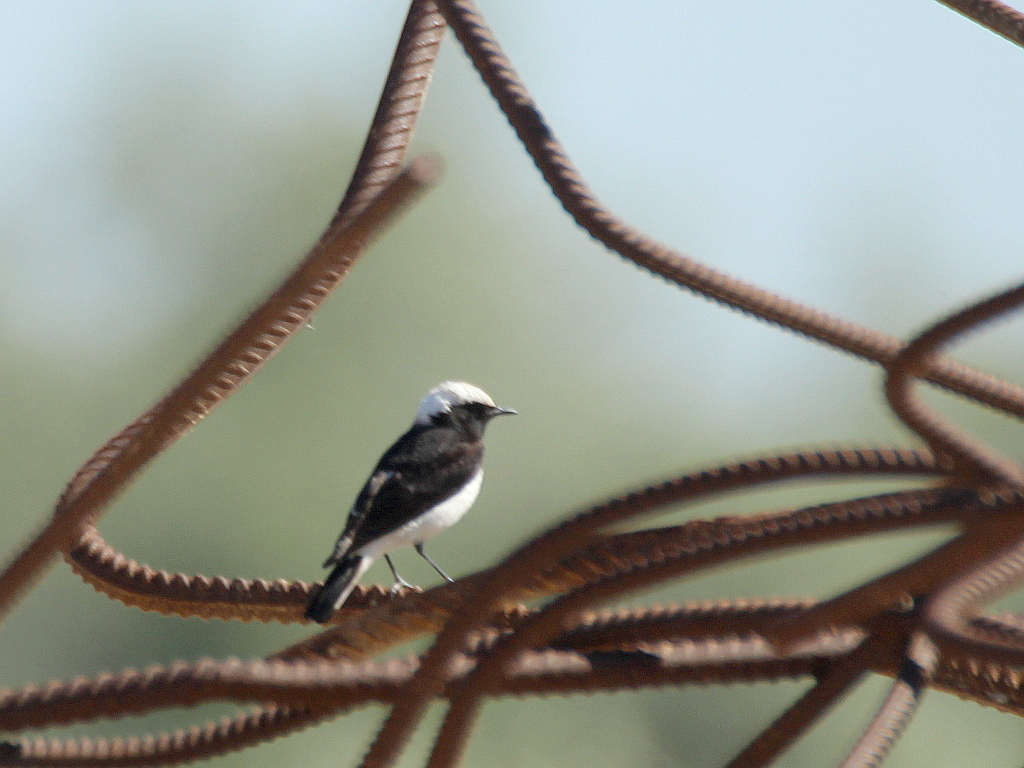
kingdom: Animalia
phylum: Chordata
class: Aves
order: Passeriformes
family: Muscicapidae
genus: Oenanthe
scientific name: Oenanthe pleschanka
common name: Pied wheatear
